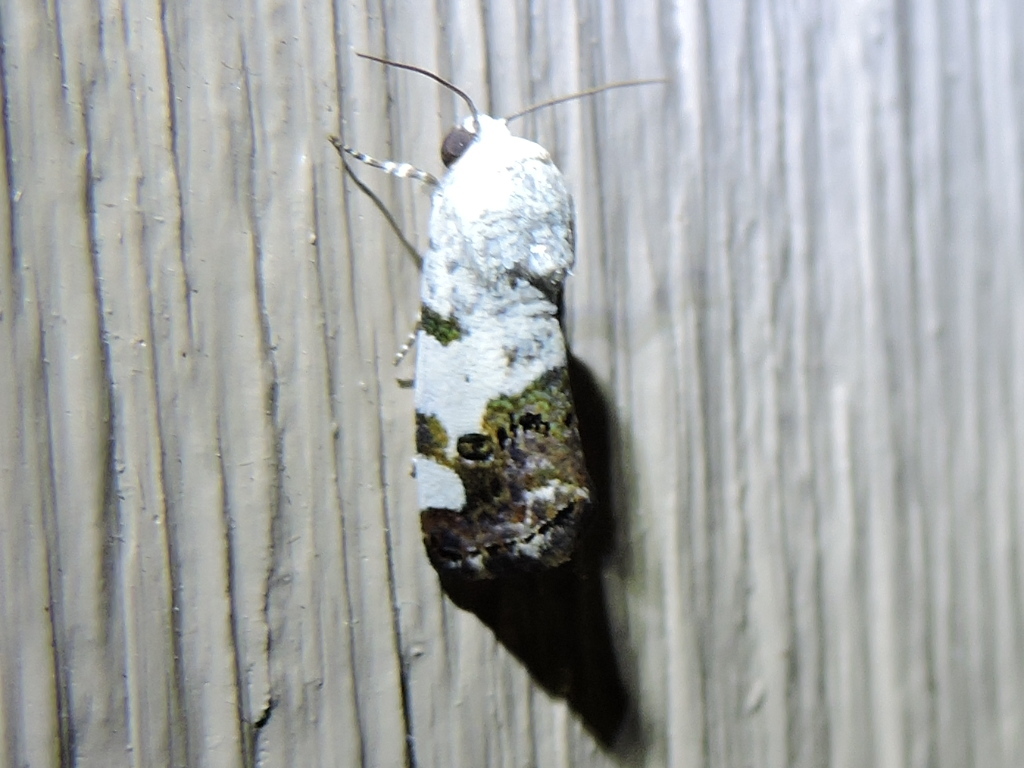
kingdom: Animalia
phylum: Arthropoda
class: Insecta
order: Lepidoptera
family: Noctuidae
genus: Acontia
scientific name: Acontia aprica
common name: Nun
